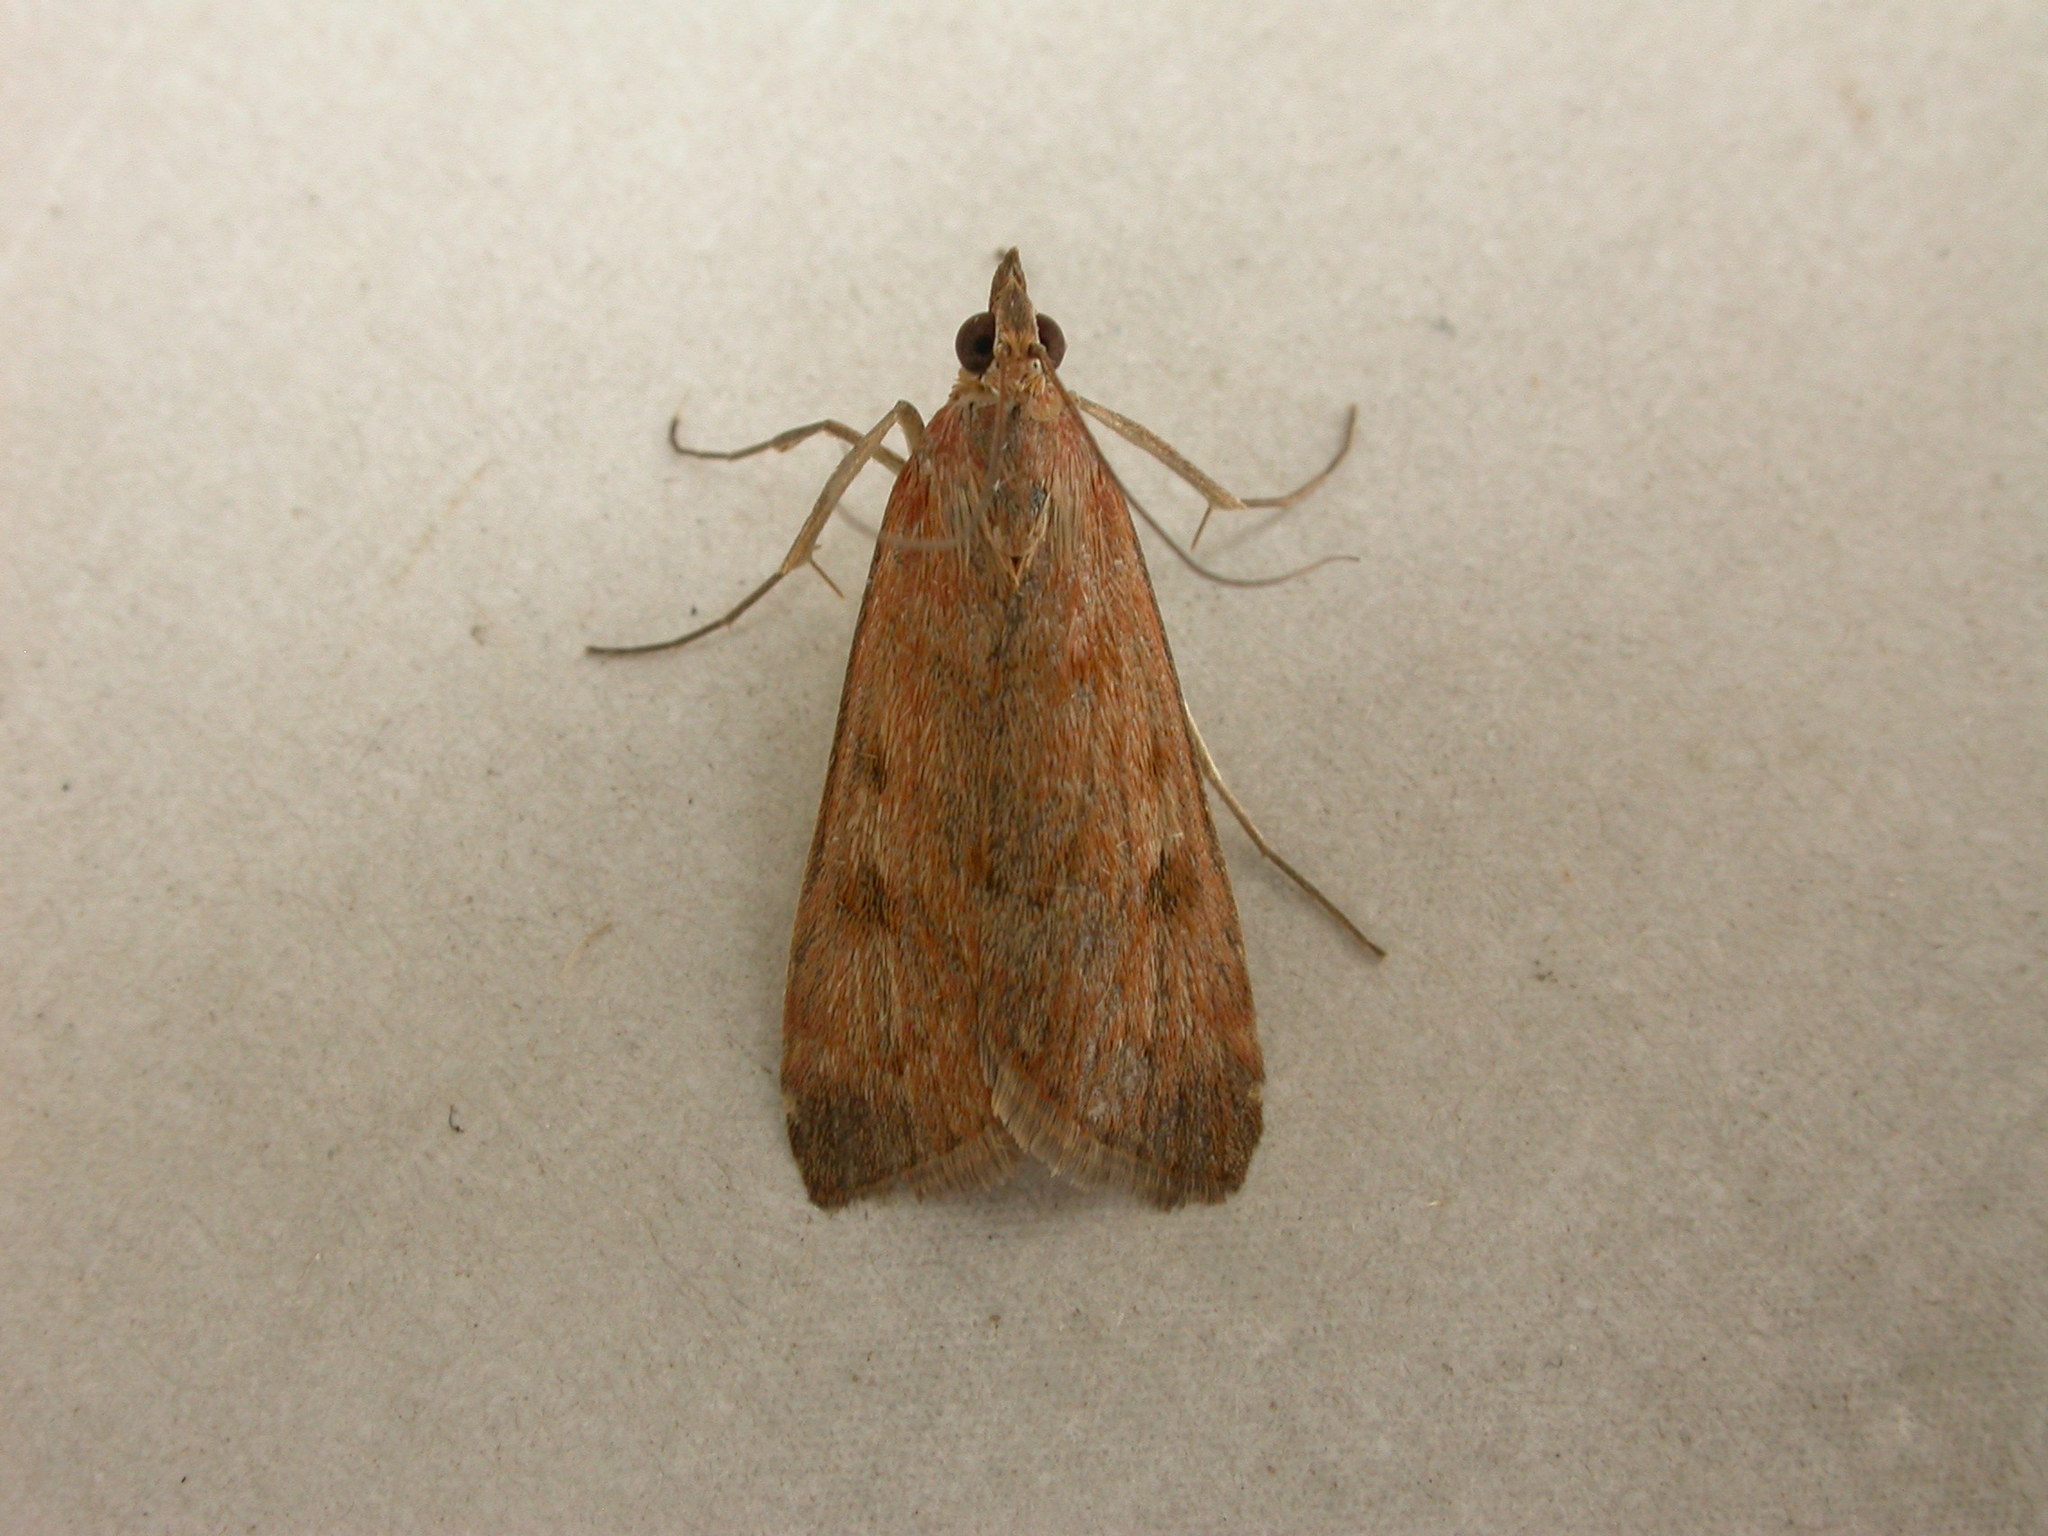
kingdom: Animalia
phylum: Arthropoda
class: Insecta
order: Lepidoptera
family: Crambidae
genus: Achyra
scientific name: Achyra affinitalis
